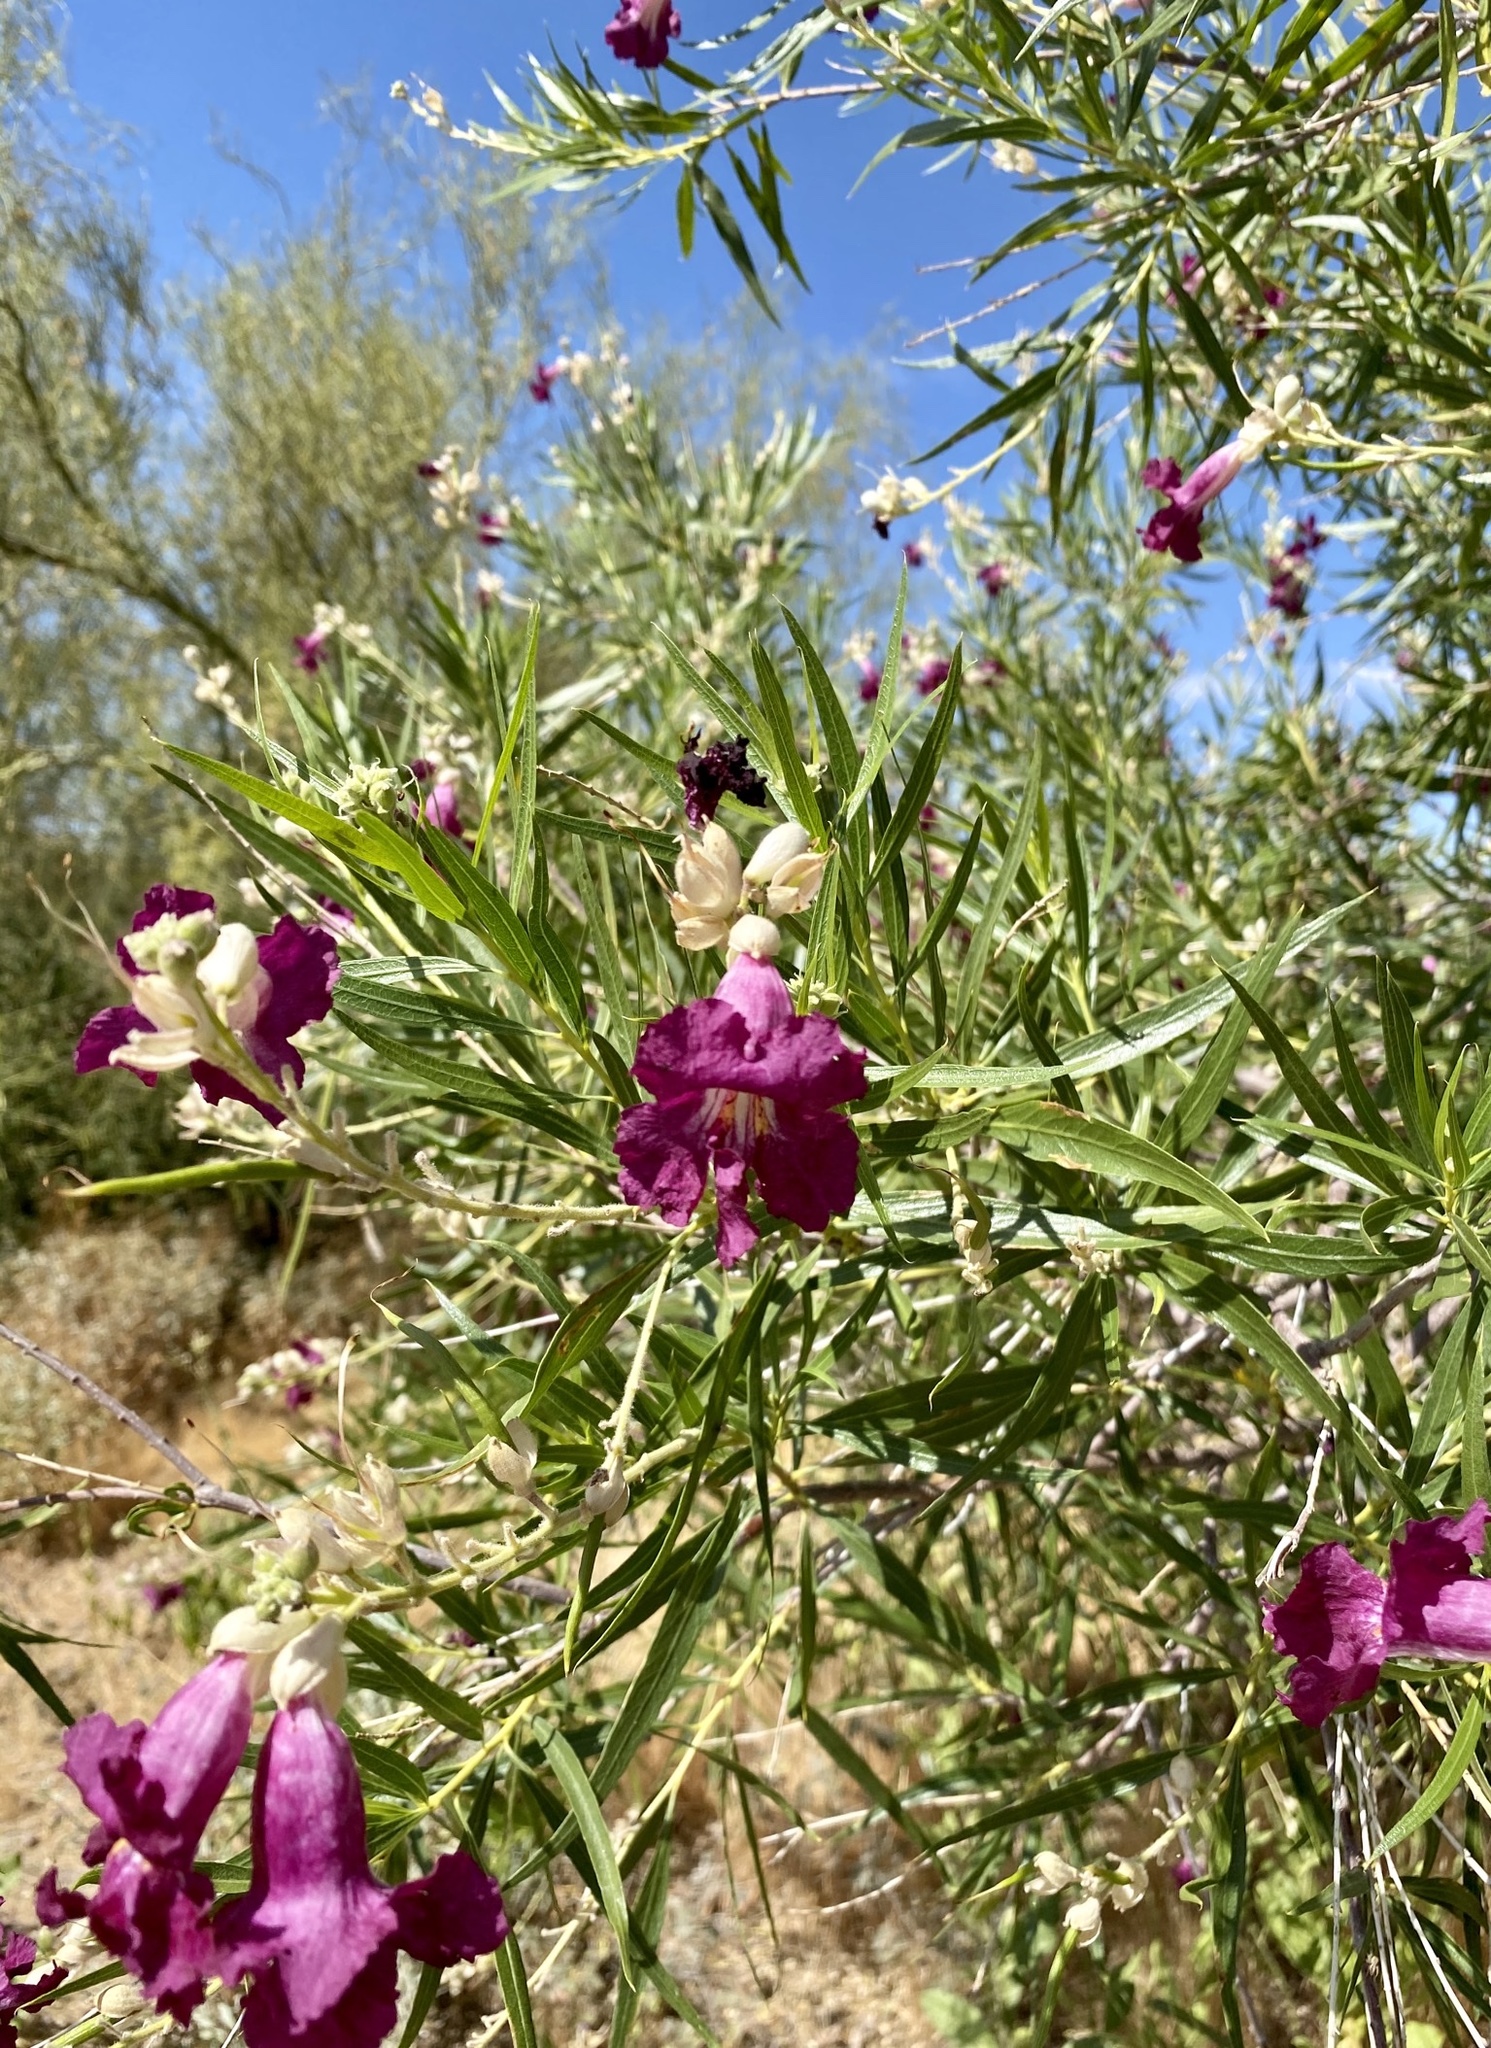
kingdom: Plantae
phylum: Tracheophyta
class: Magnoliopsida
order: Lamiales
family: Bignoniaceae
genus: Chilopsis
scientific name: Chilopsis linearis
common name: Desert-willow
